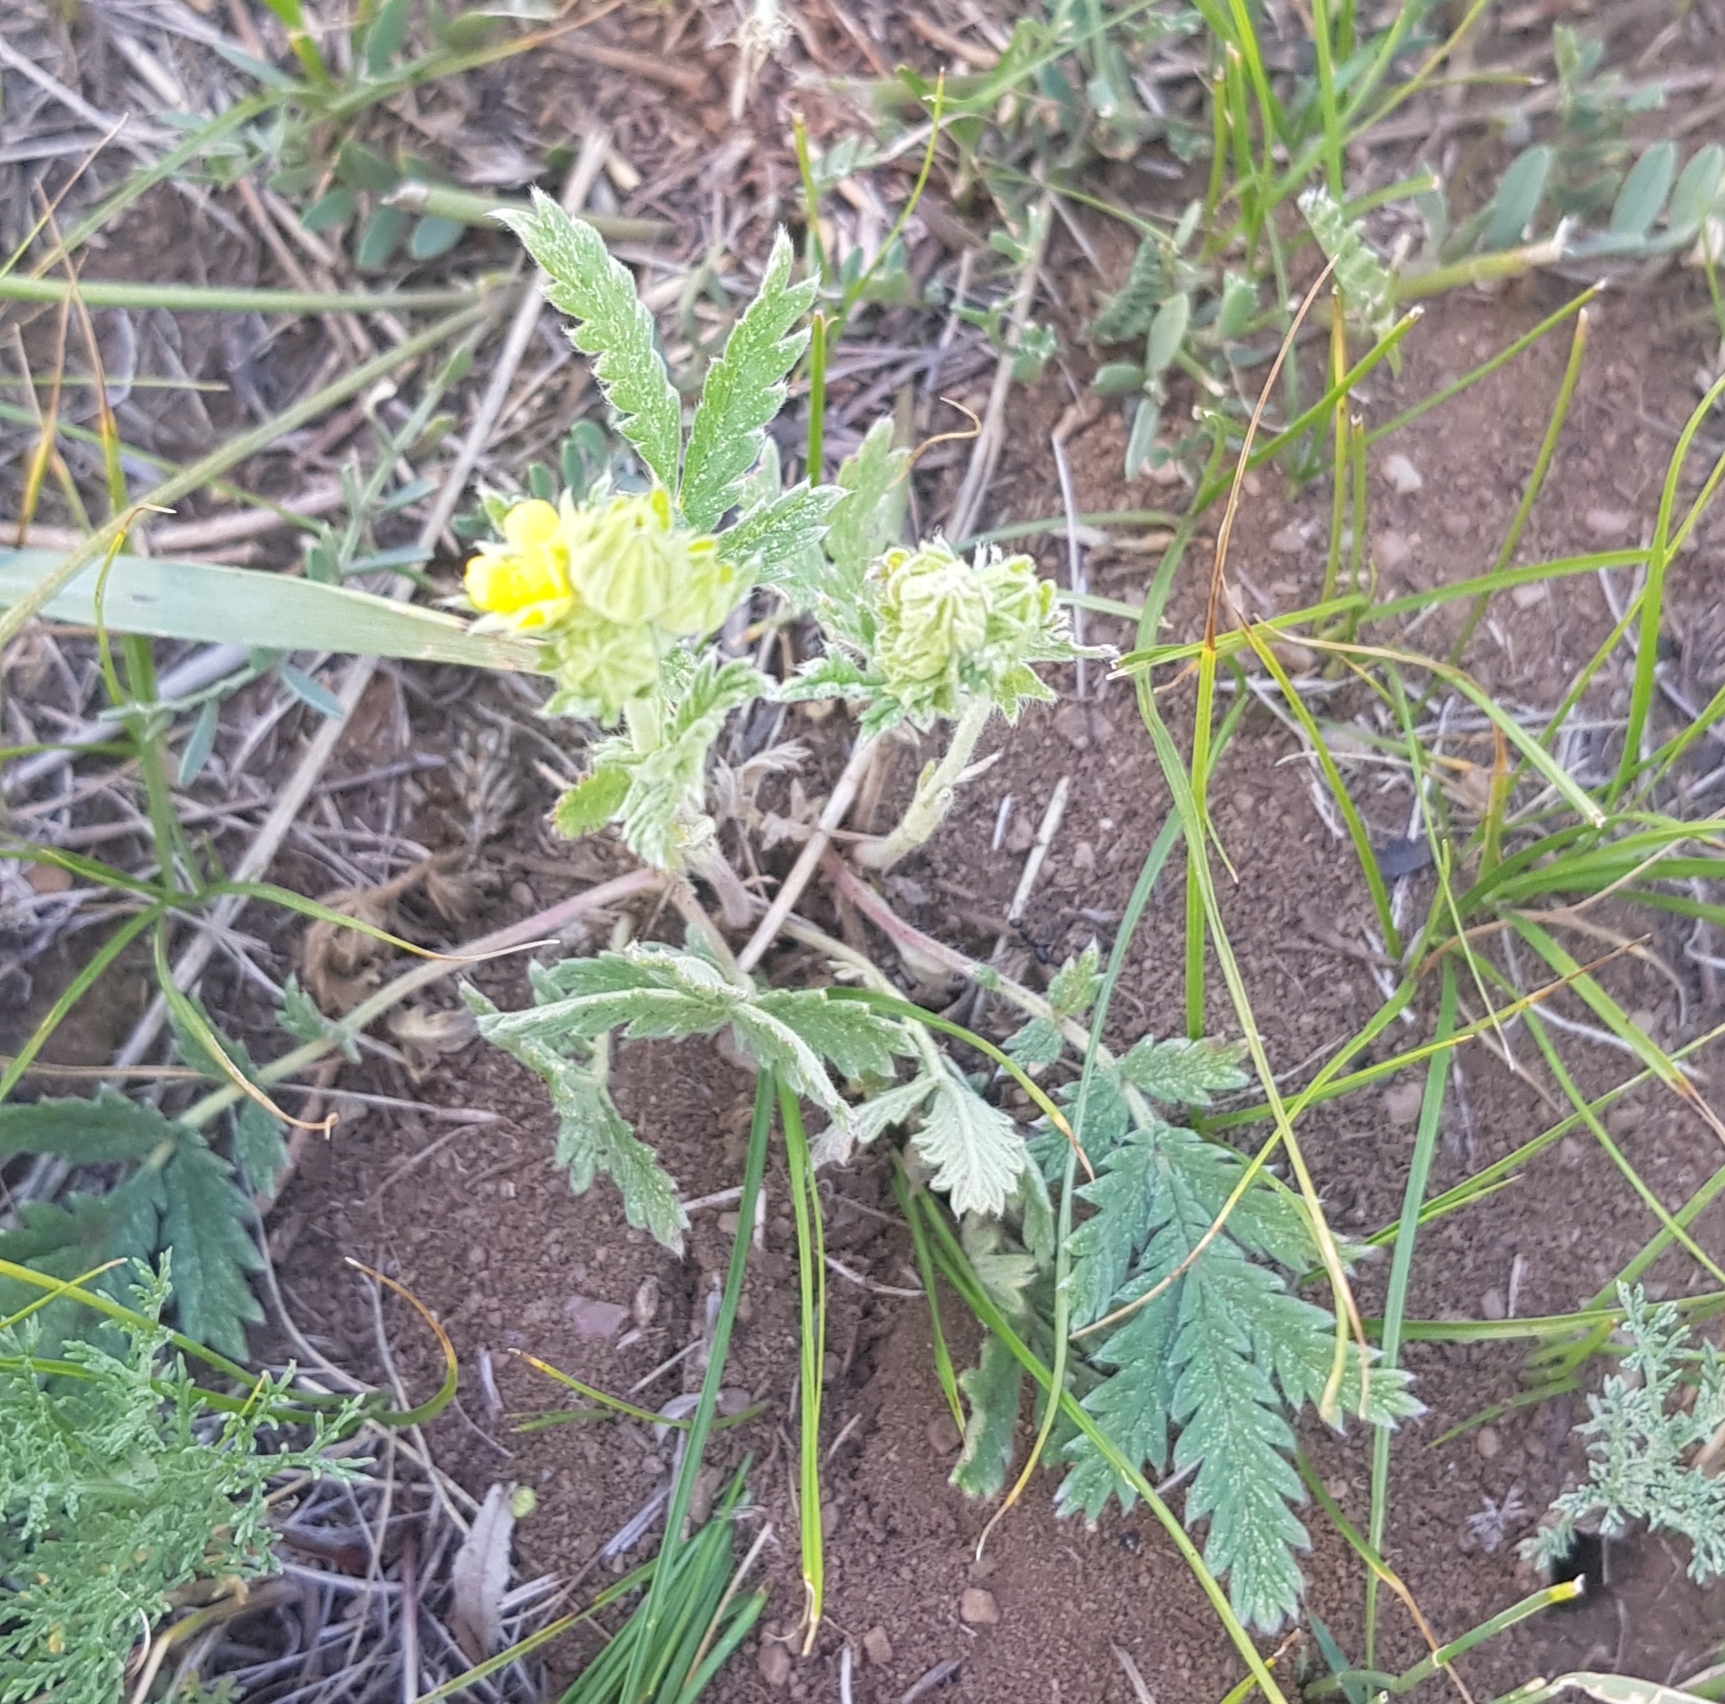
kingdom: Plantae
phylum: Tracheophyta
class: Magnoliopsida
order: Rosales
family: Rosaceae
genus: Potentilla
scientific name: Potentilla tanacetifolia
